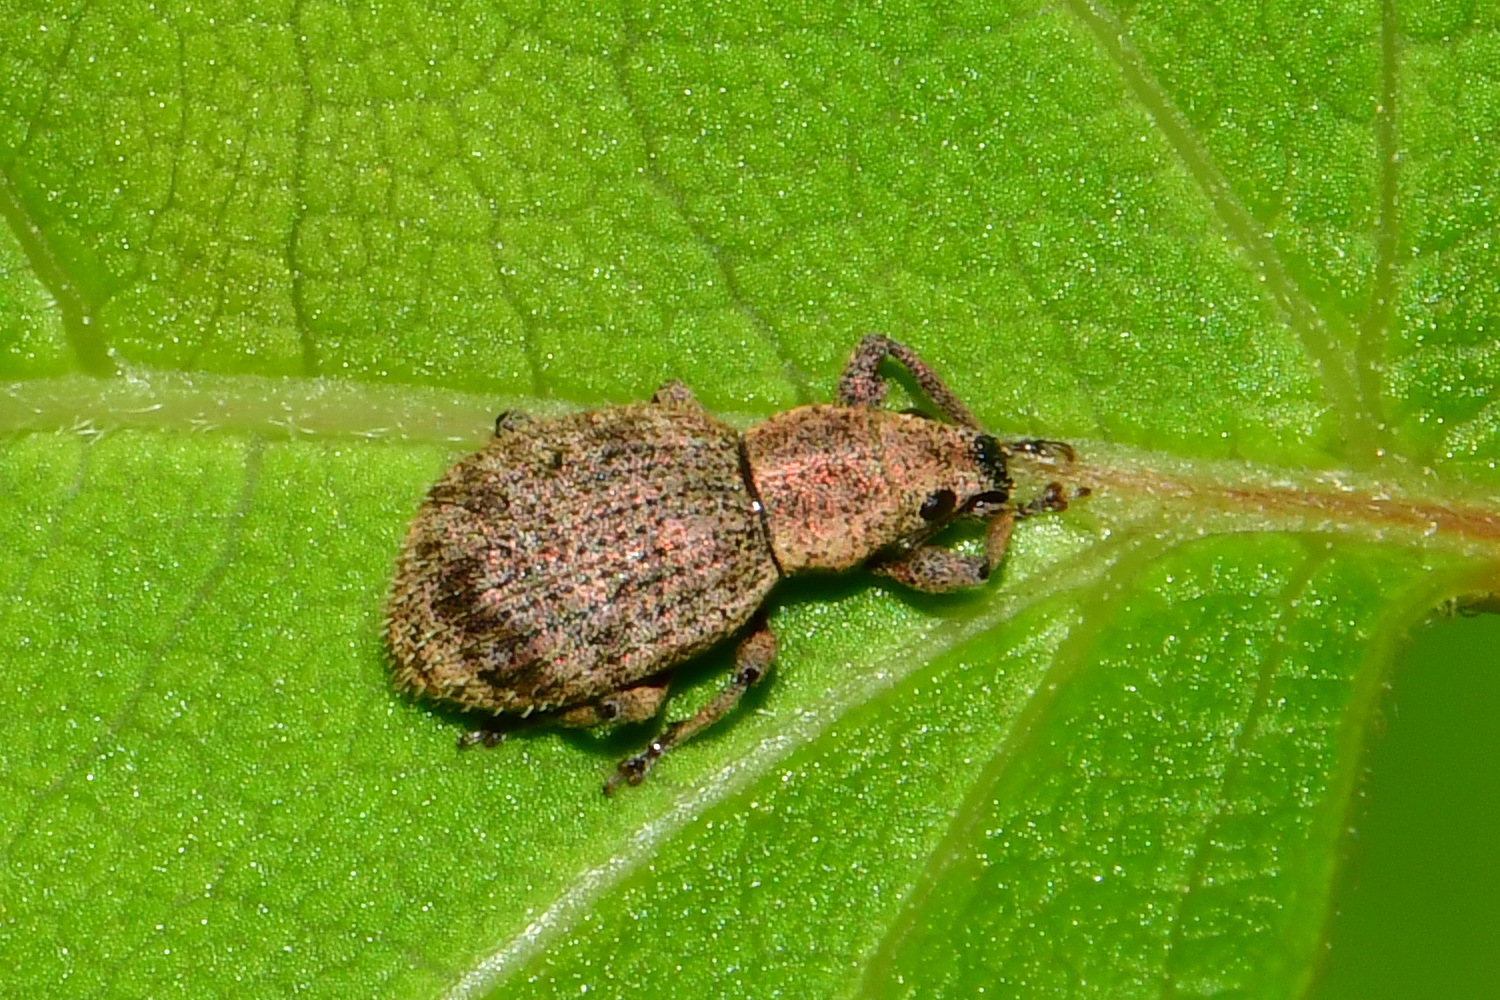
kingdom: Animalia
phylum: Arthropoda
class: Insecta
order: Coleoptera
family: Curculionidae
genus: Sciaphilus
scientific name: Sciaphilus asperatus
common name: Weevil
